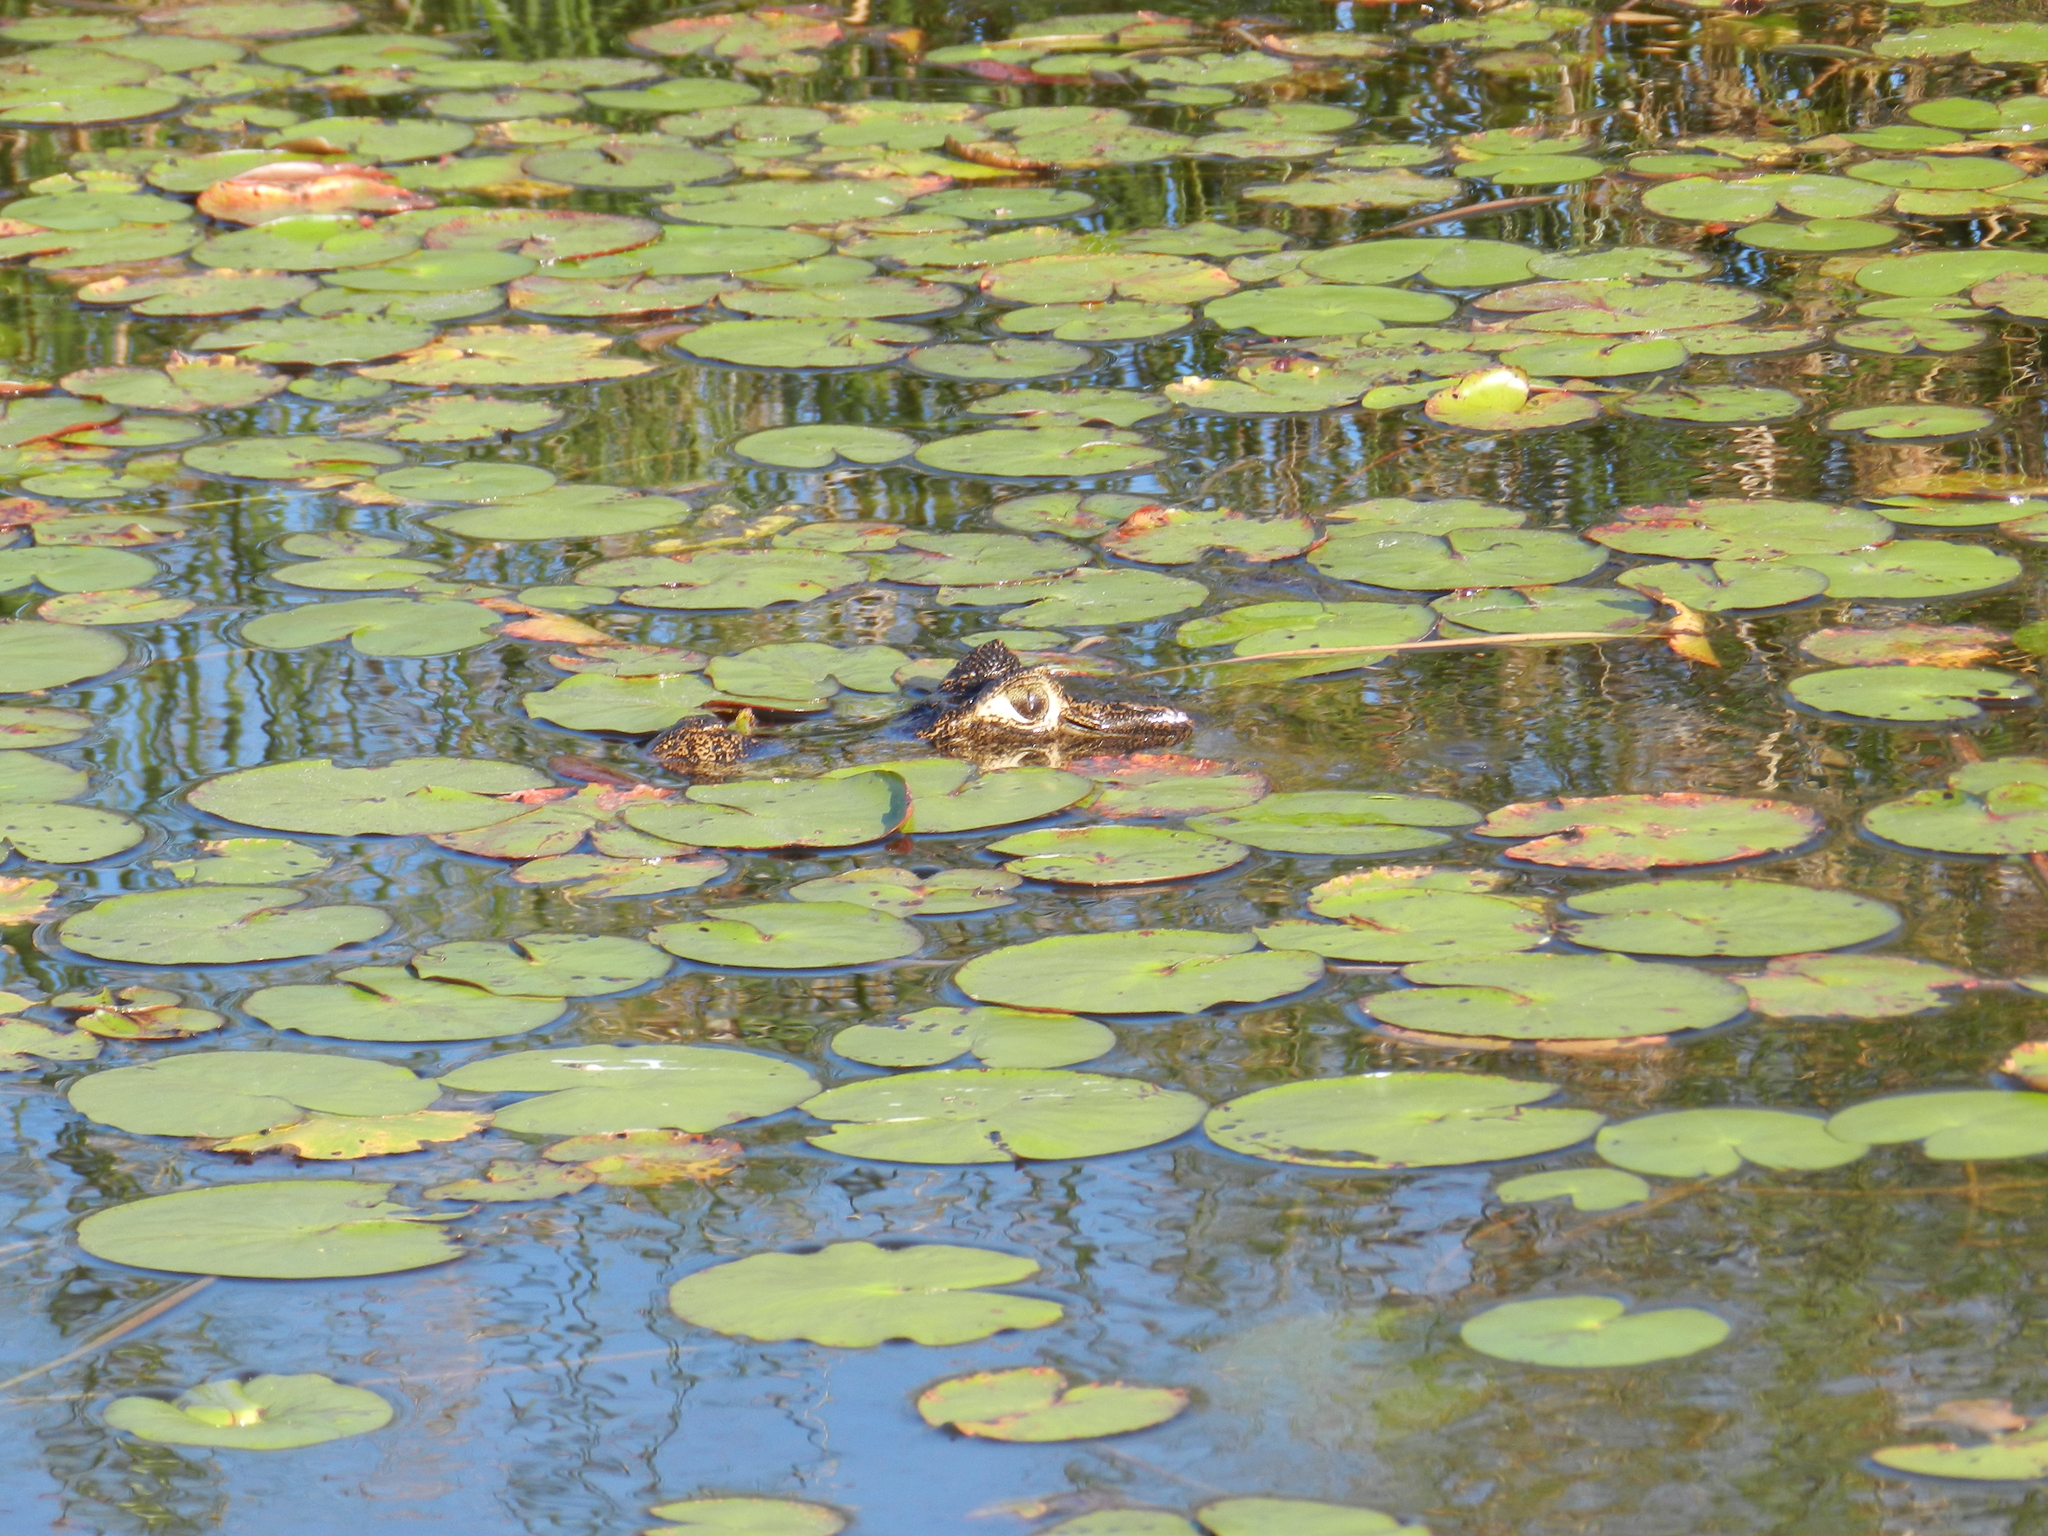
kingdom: Animalia
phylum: Chordata
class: Crocodylia
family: Alligatoridae
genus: Caiman
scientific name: Caiman yacare
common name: Yacare caiman
